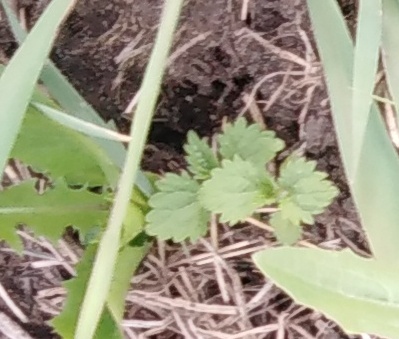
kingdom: Plantae
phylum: Tracheophyta
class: Magnoliopsida
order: Rosales
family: Urticaceae
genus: Urtica
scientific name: Urtica dioica
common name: Common nettle
